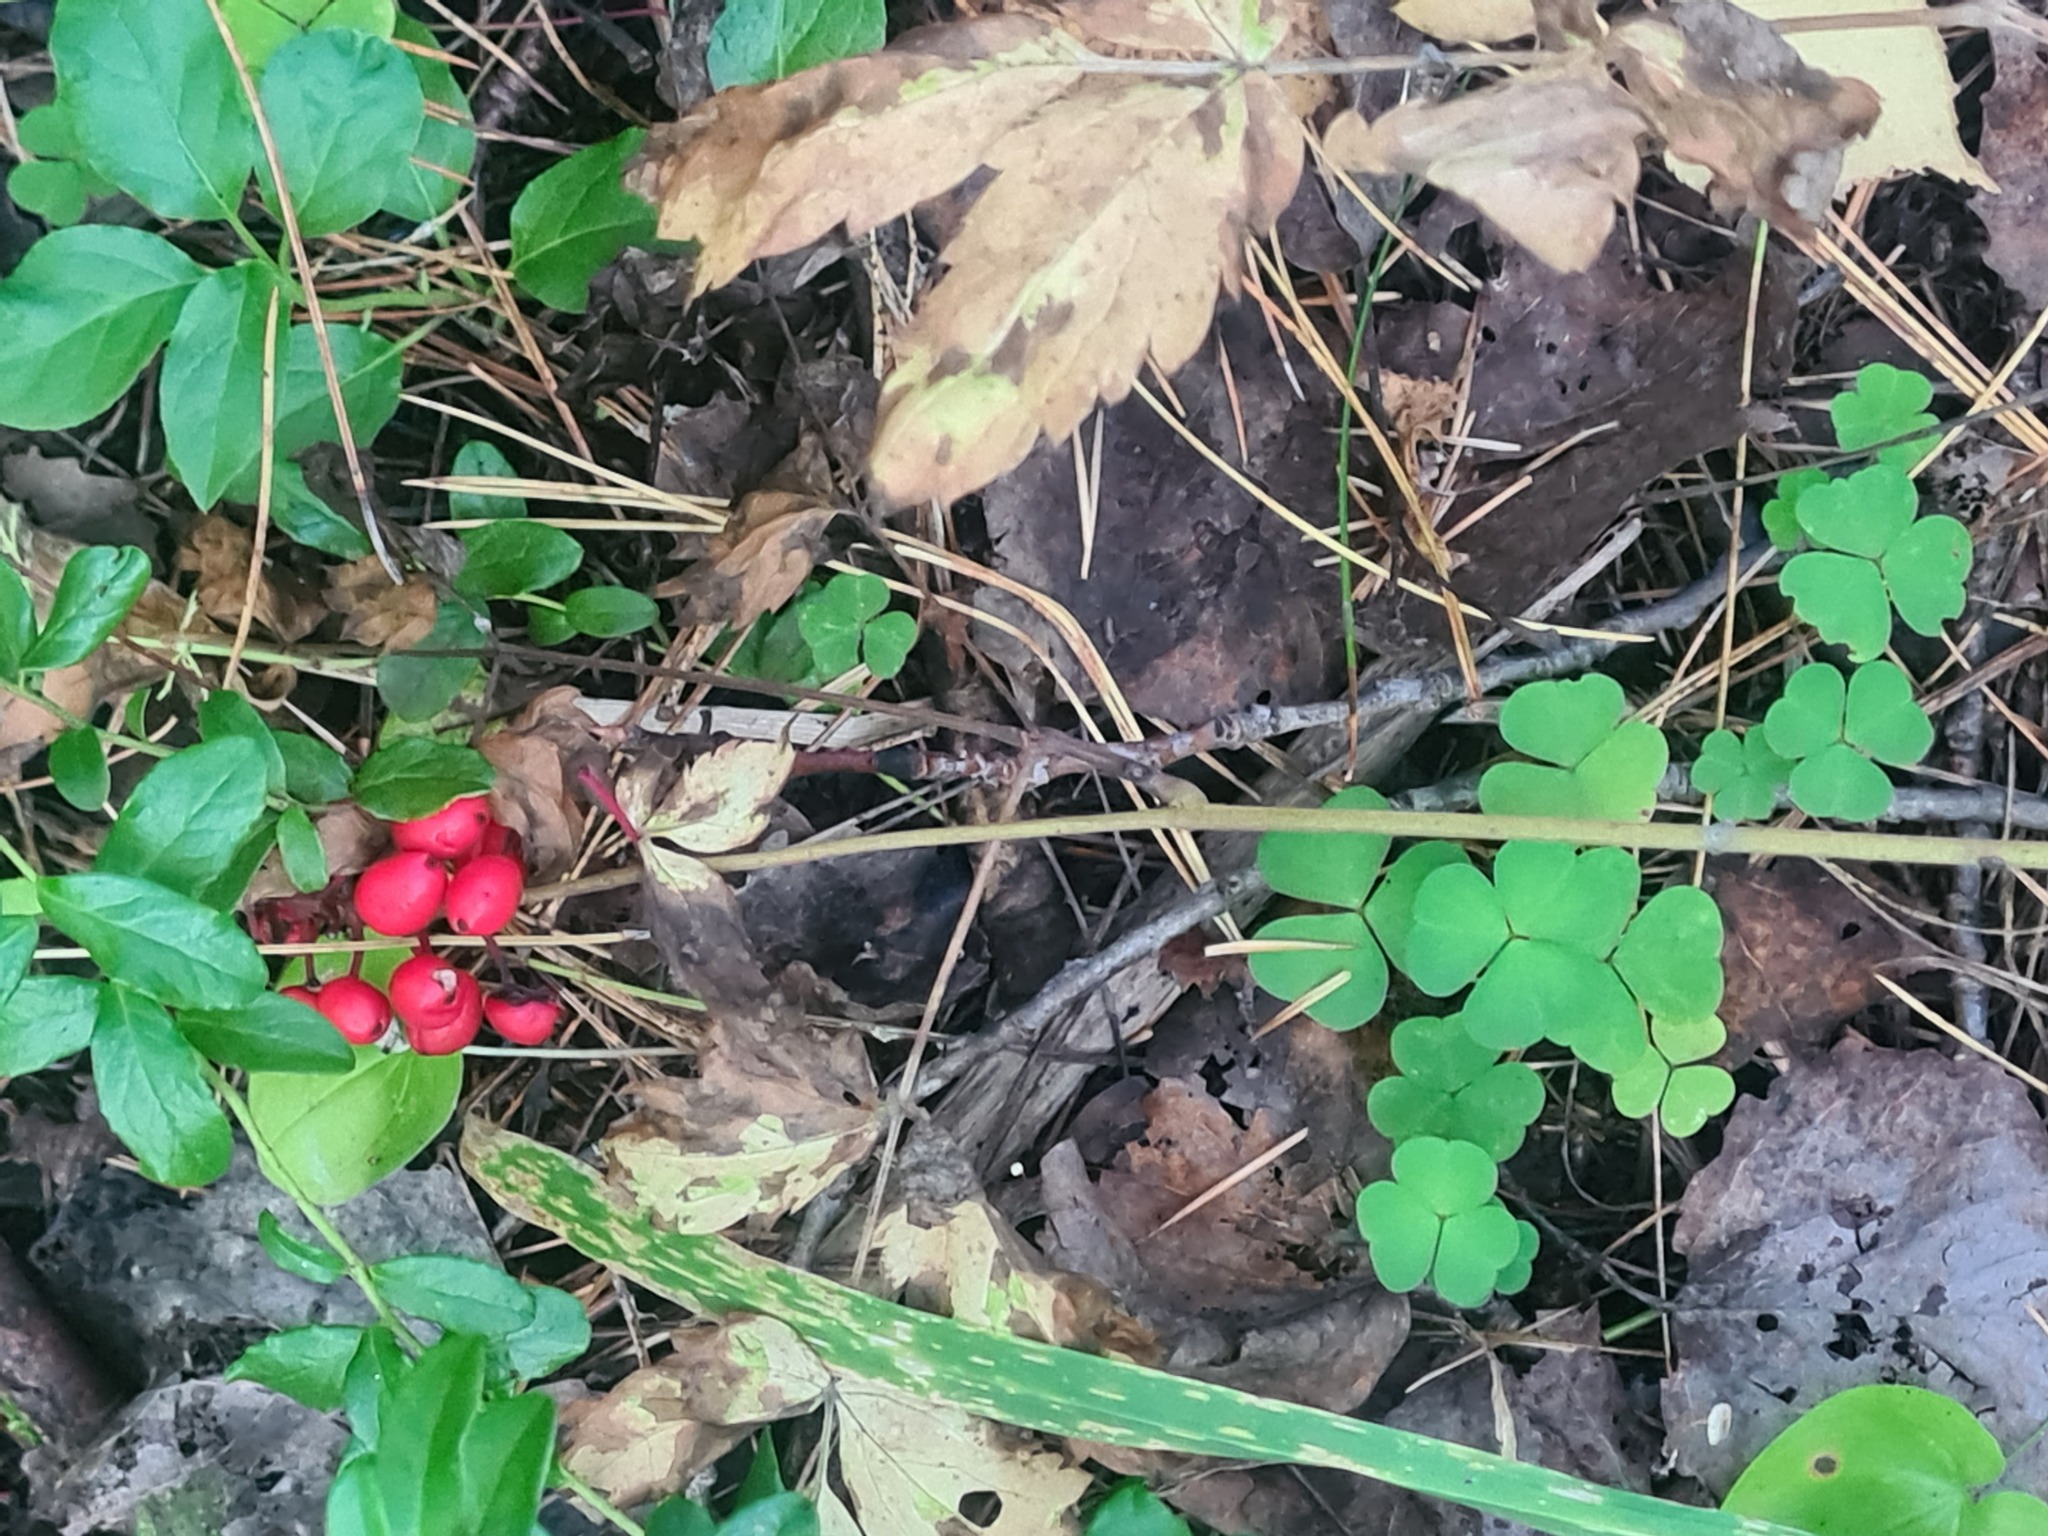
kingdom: Plantae
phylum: Tracheophyta
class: Magnoliopsida
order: Ranunculales
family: Ranunculaceae
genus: Actaea
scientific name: Actaea erythrocarpa
